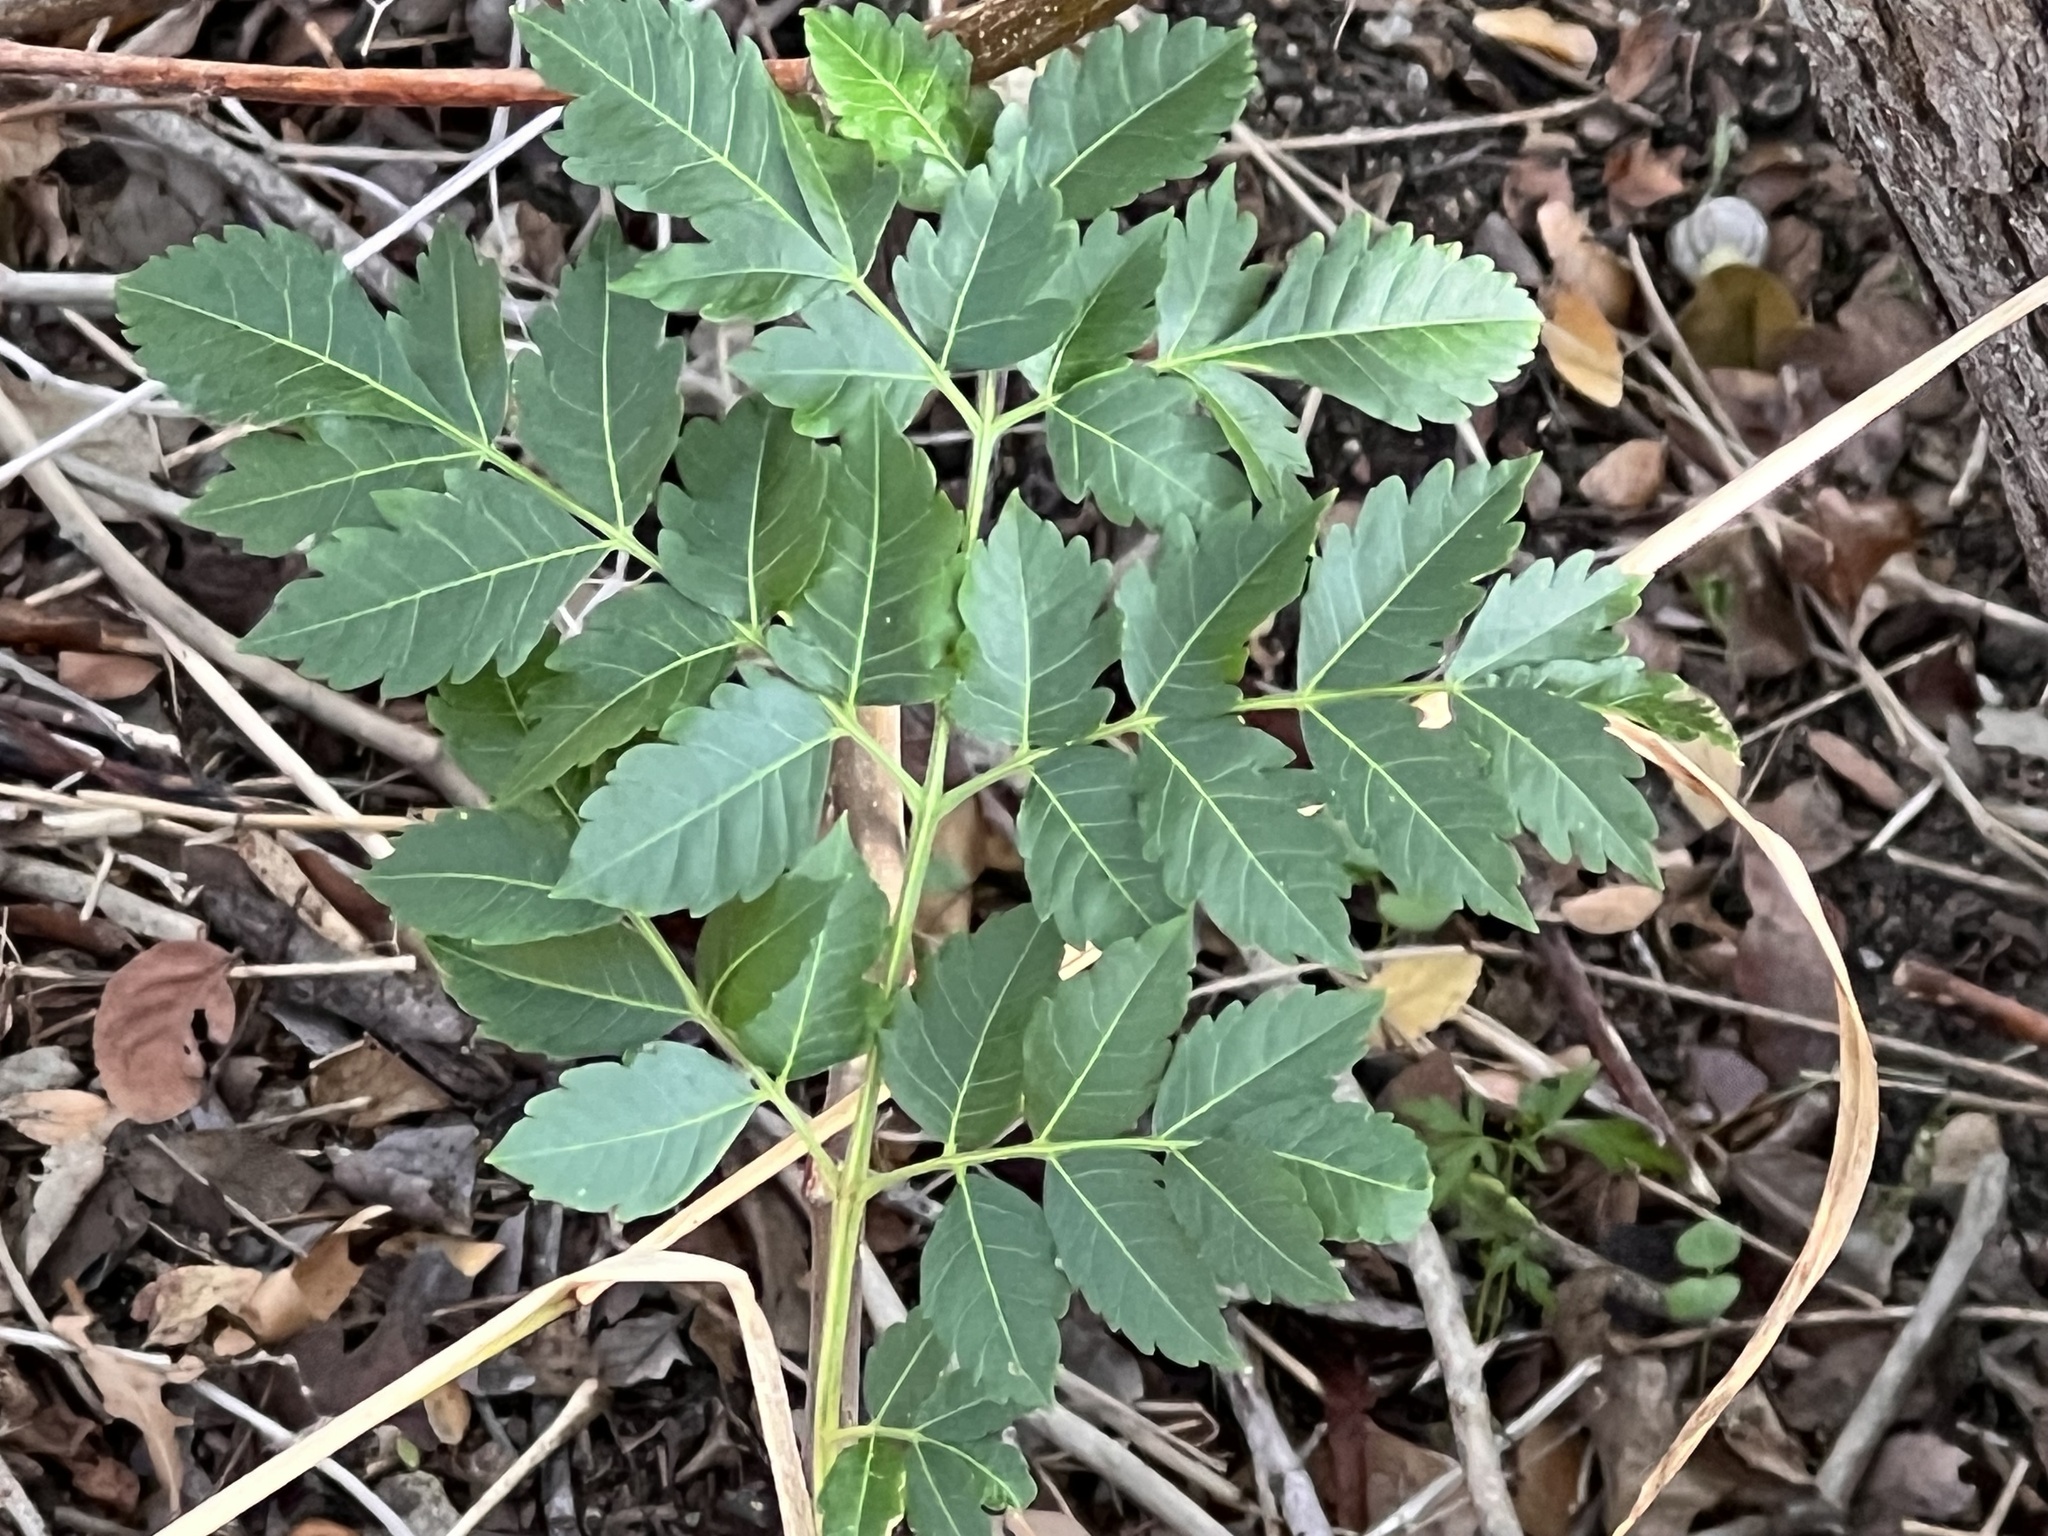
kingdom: Plantae
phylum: Tracheophyta
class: Magnoliopsida
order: Sapindales
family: Meliaceae
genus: Melia
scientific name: Melia azedarach
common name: Chinaberrytree
